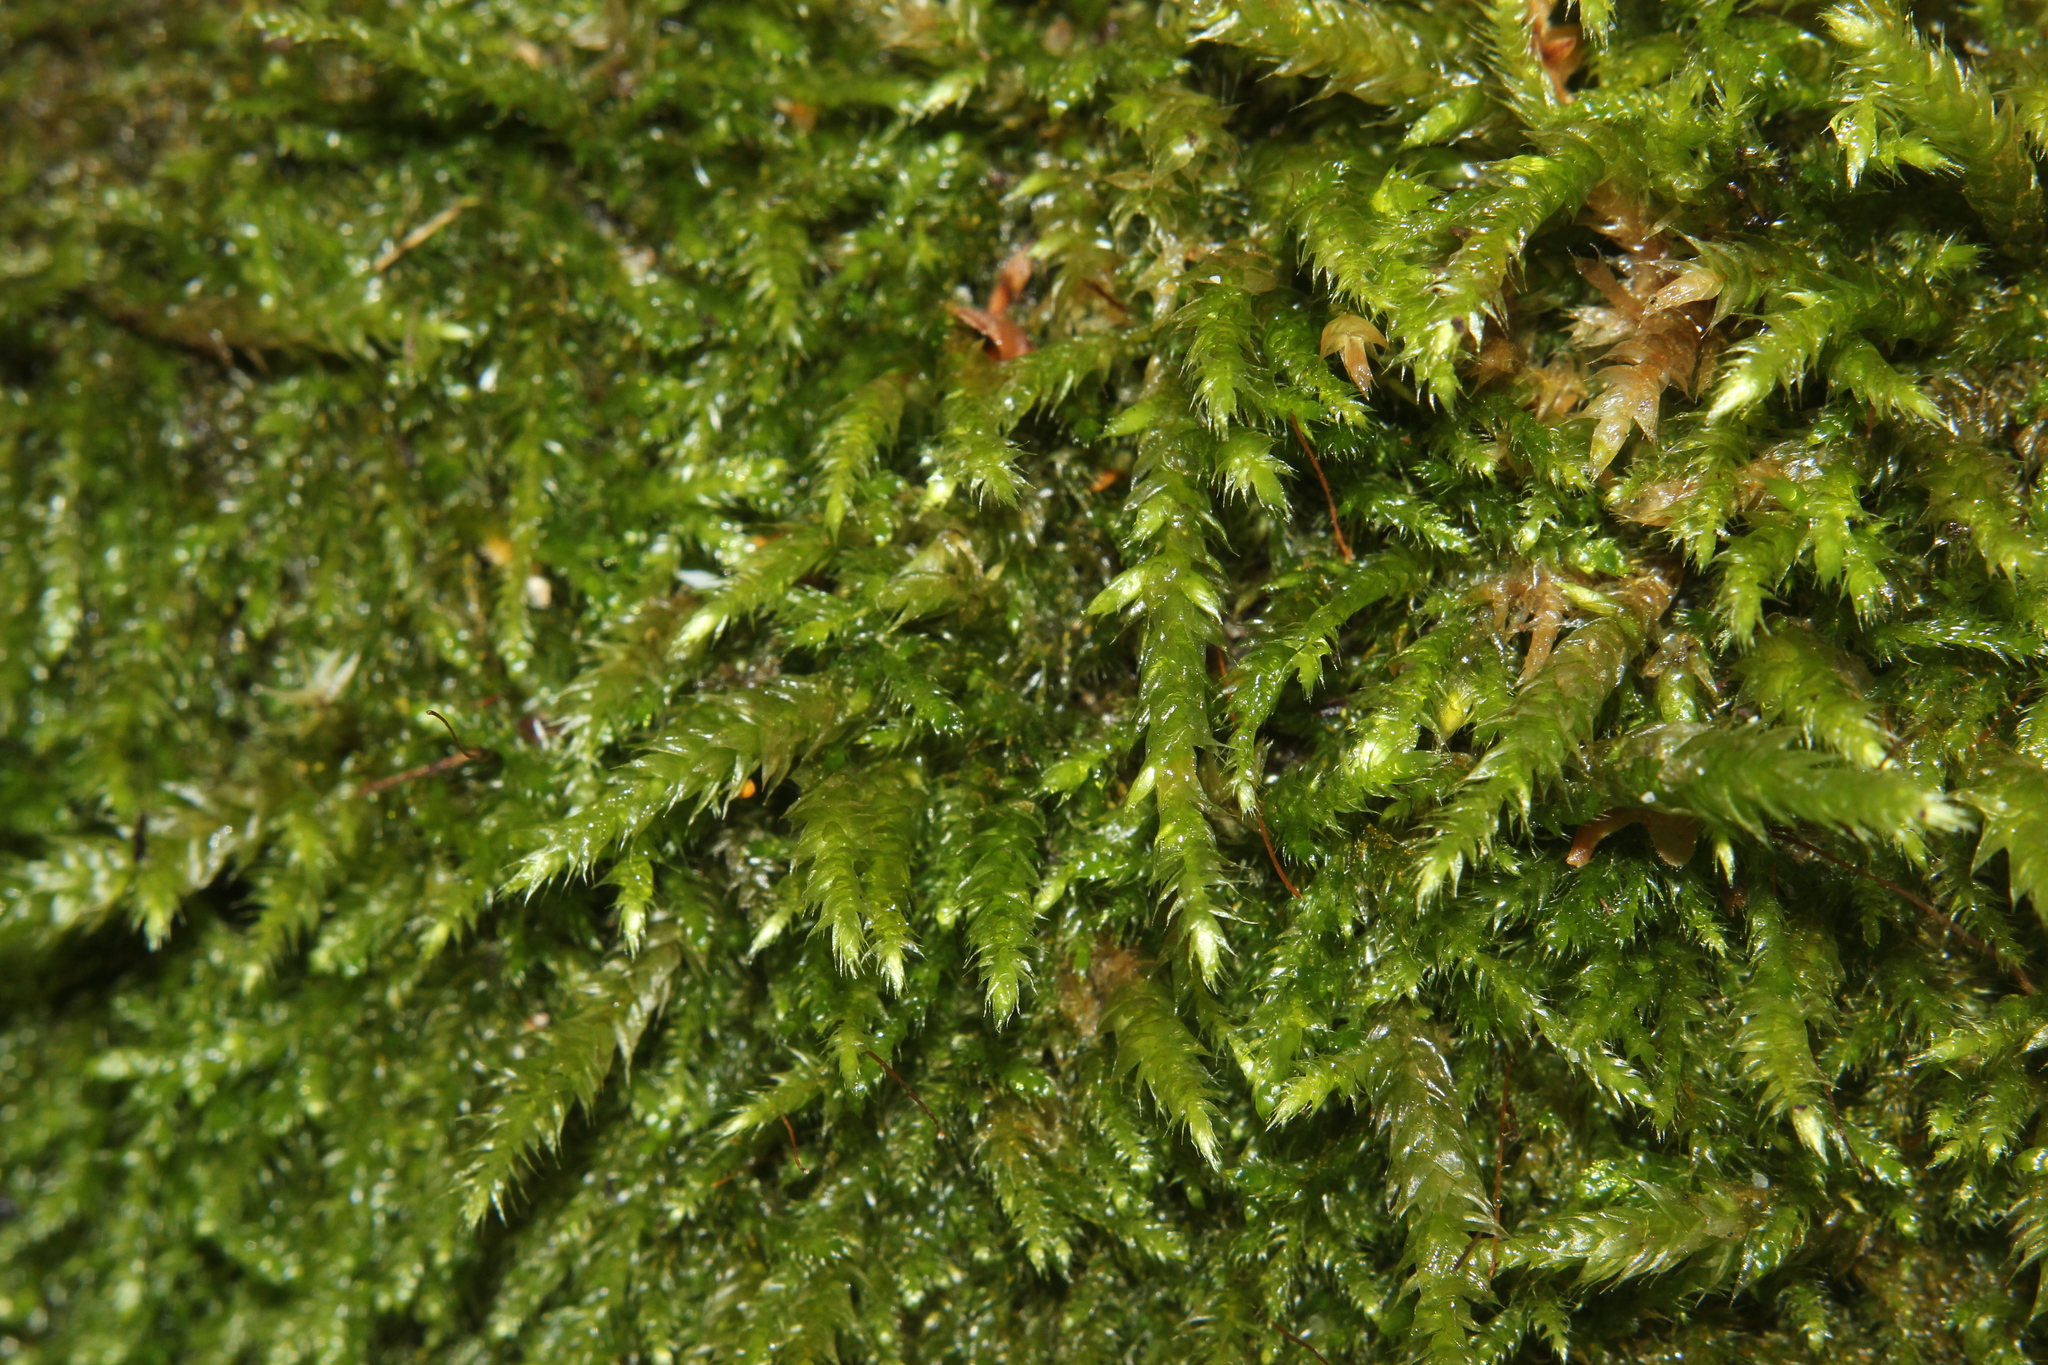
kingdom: Plantae
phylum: Bryophyta
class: Bryopsida
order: Hypnales
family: Hypnaceae
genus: Hypnum
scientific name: Hypnum cupressiforme
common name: Cypress-leaved plait-moss
